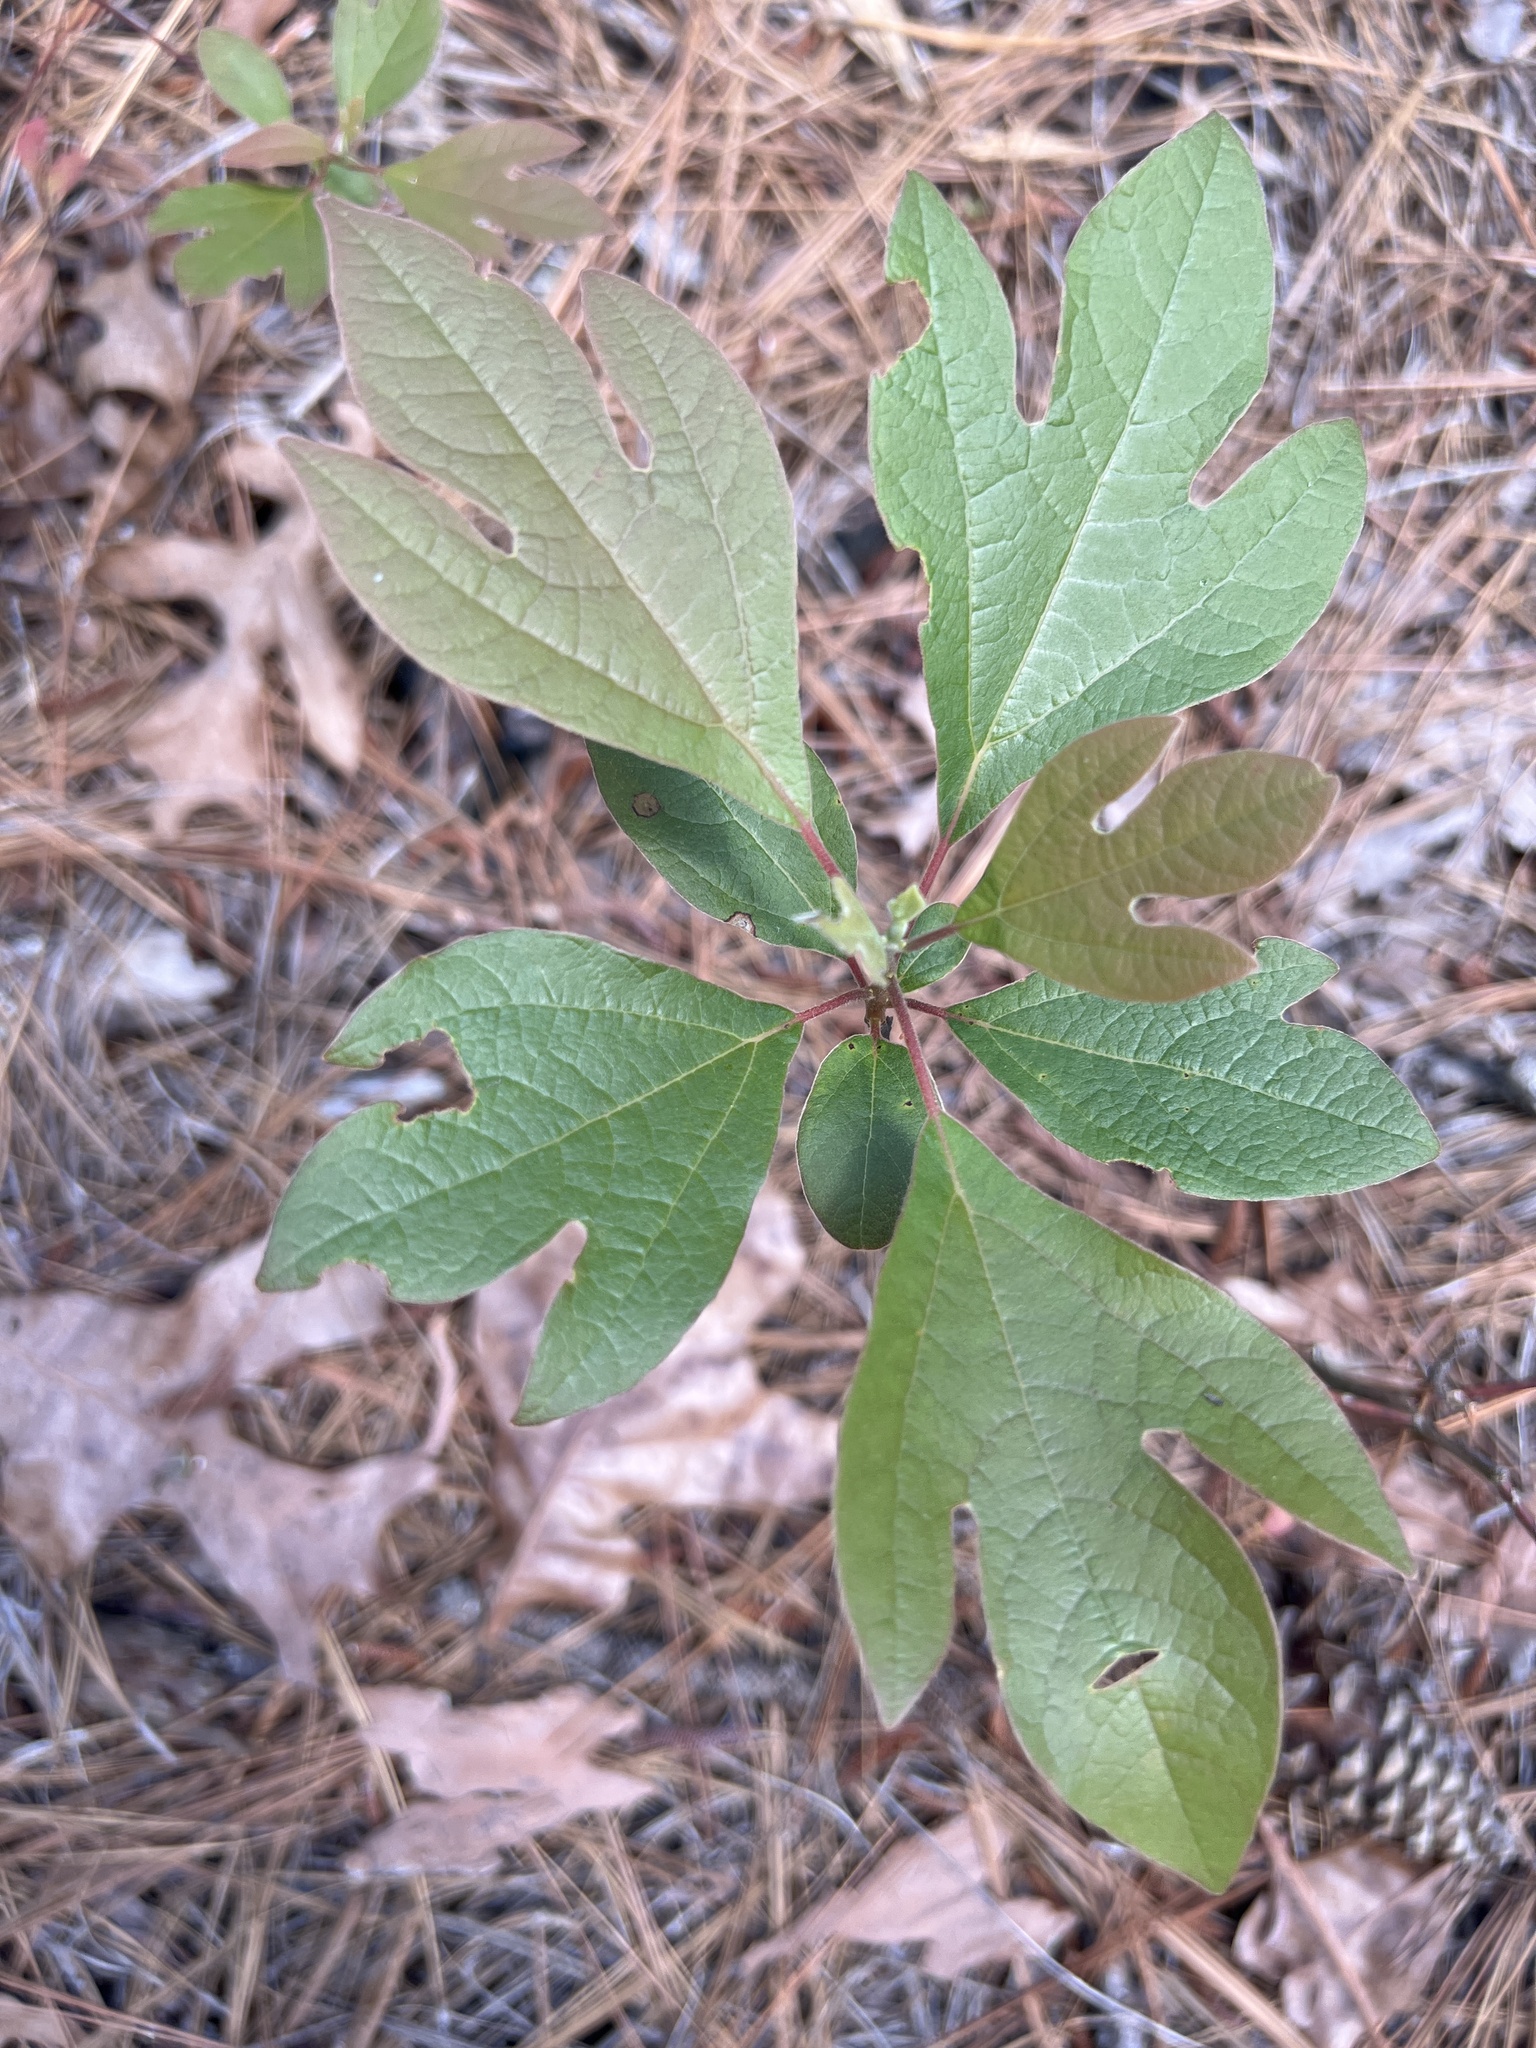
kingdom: Plantae
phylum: Tracheophyta
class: Magnoliopsida
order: Laurales
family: Lauraceae
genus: Sassafras
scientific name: Sassafras albidum
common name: Sassafras
